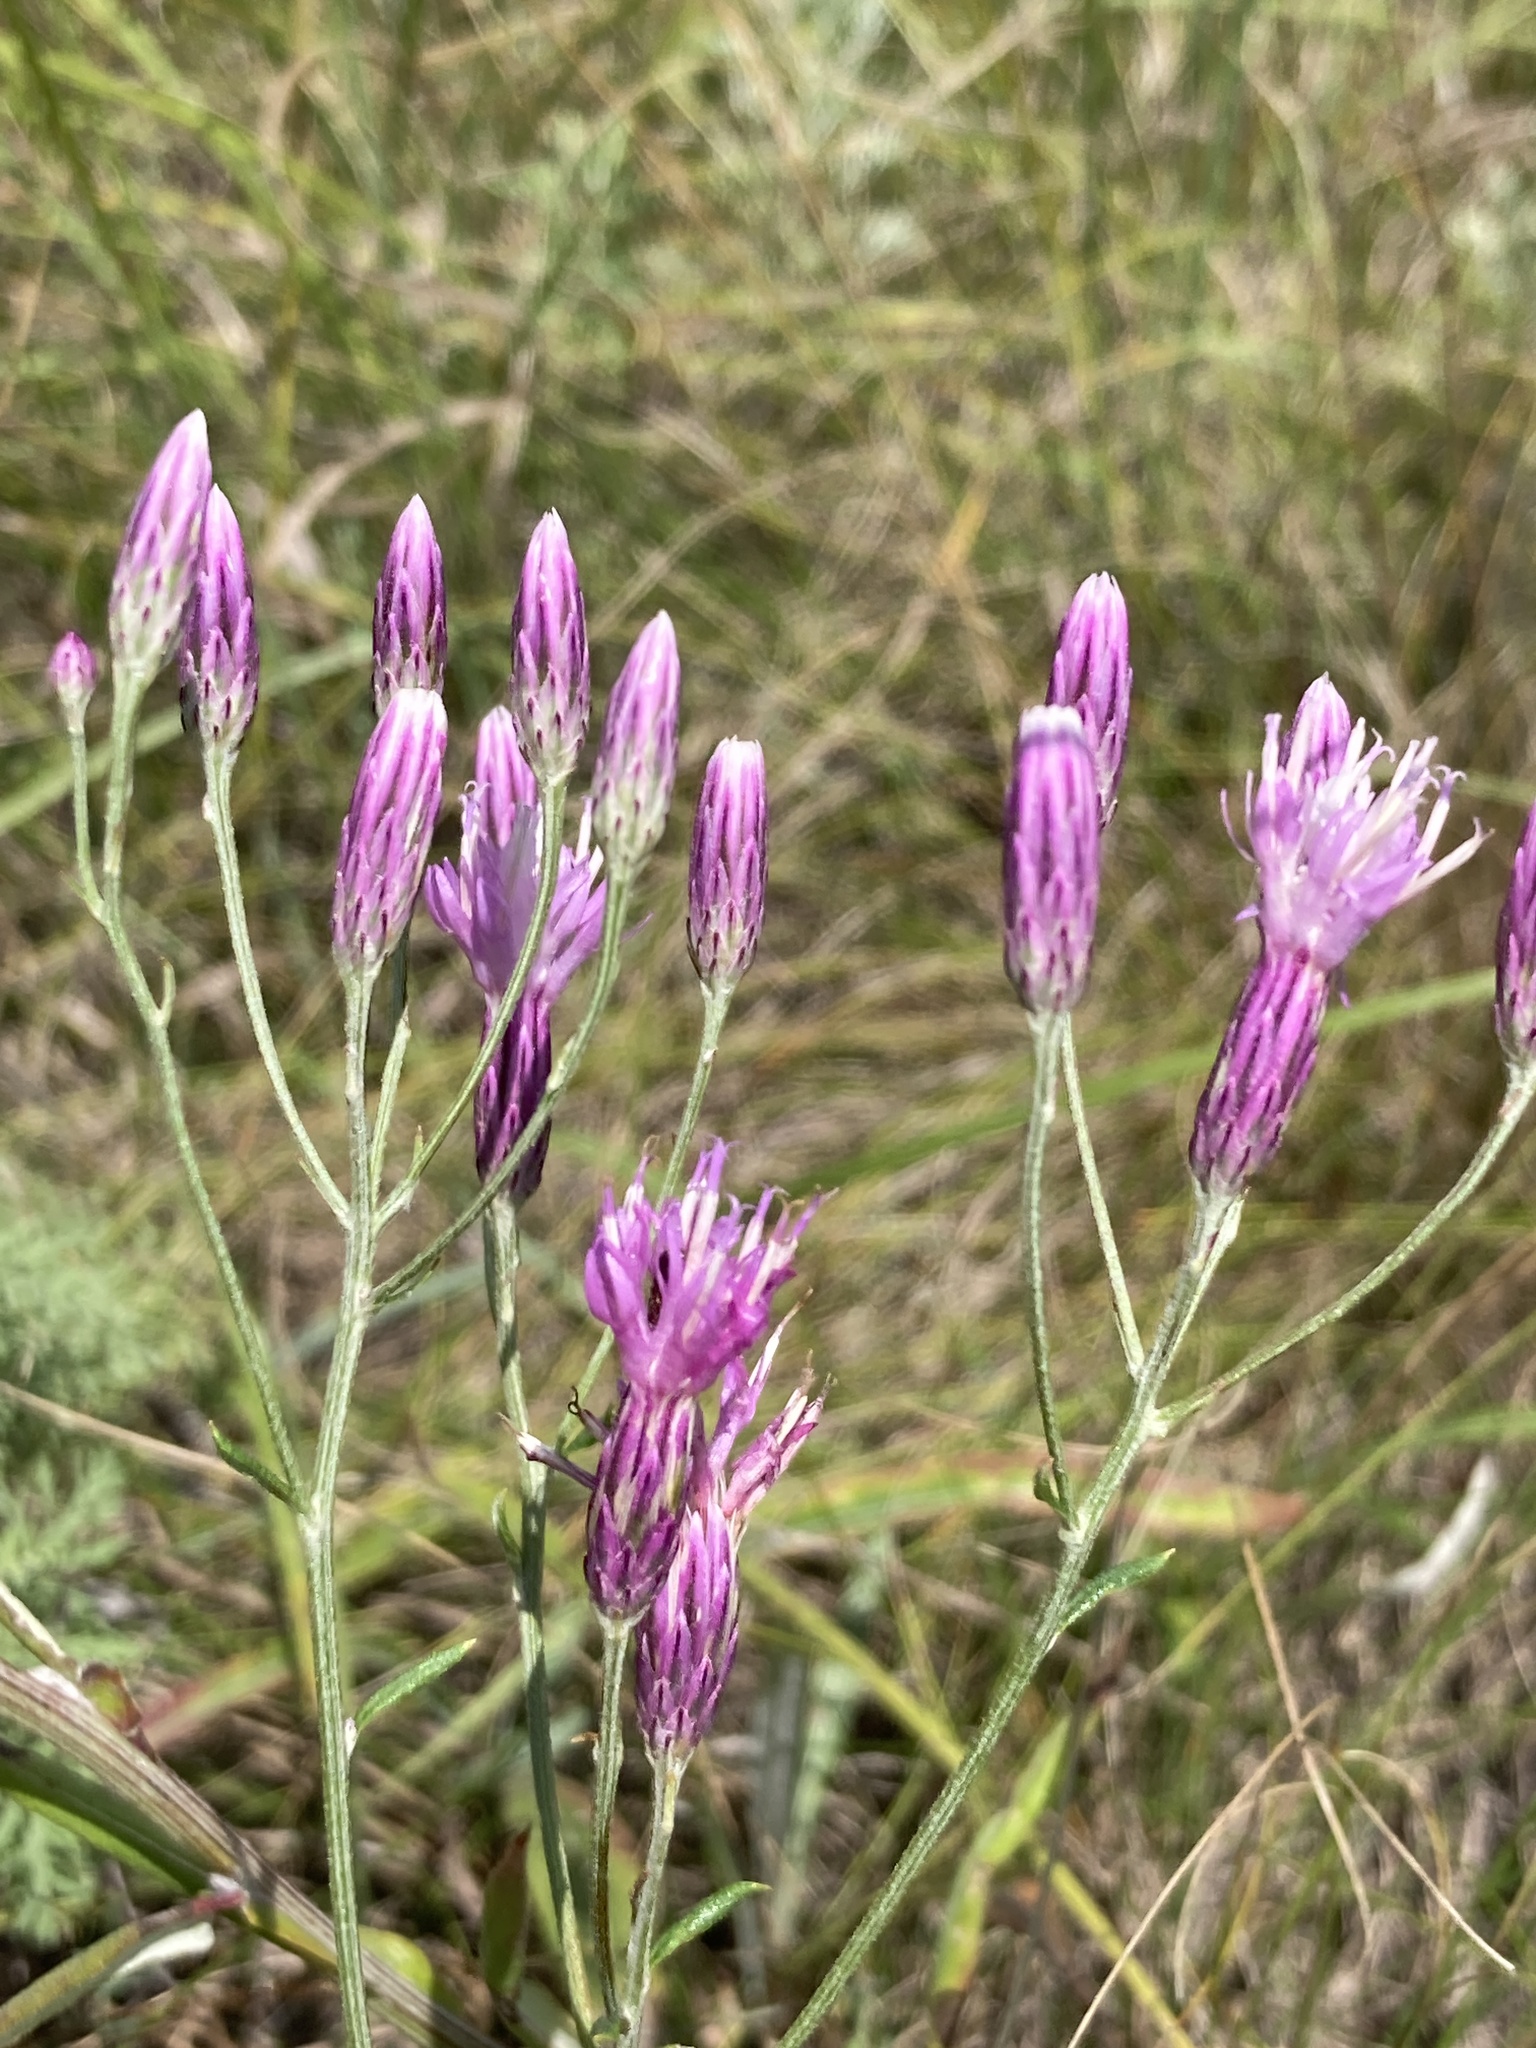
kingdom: Plantae
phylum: Tracheophyta
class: Magnoliopsida
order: Asterales
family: Asteraceae
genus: Jurinea
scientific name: Jurinea multiflora
